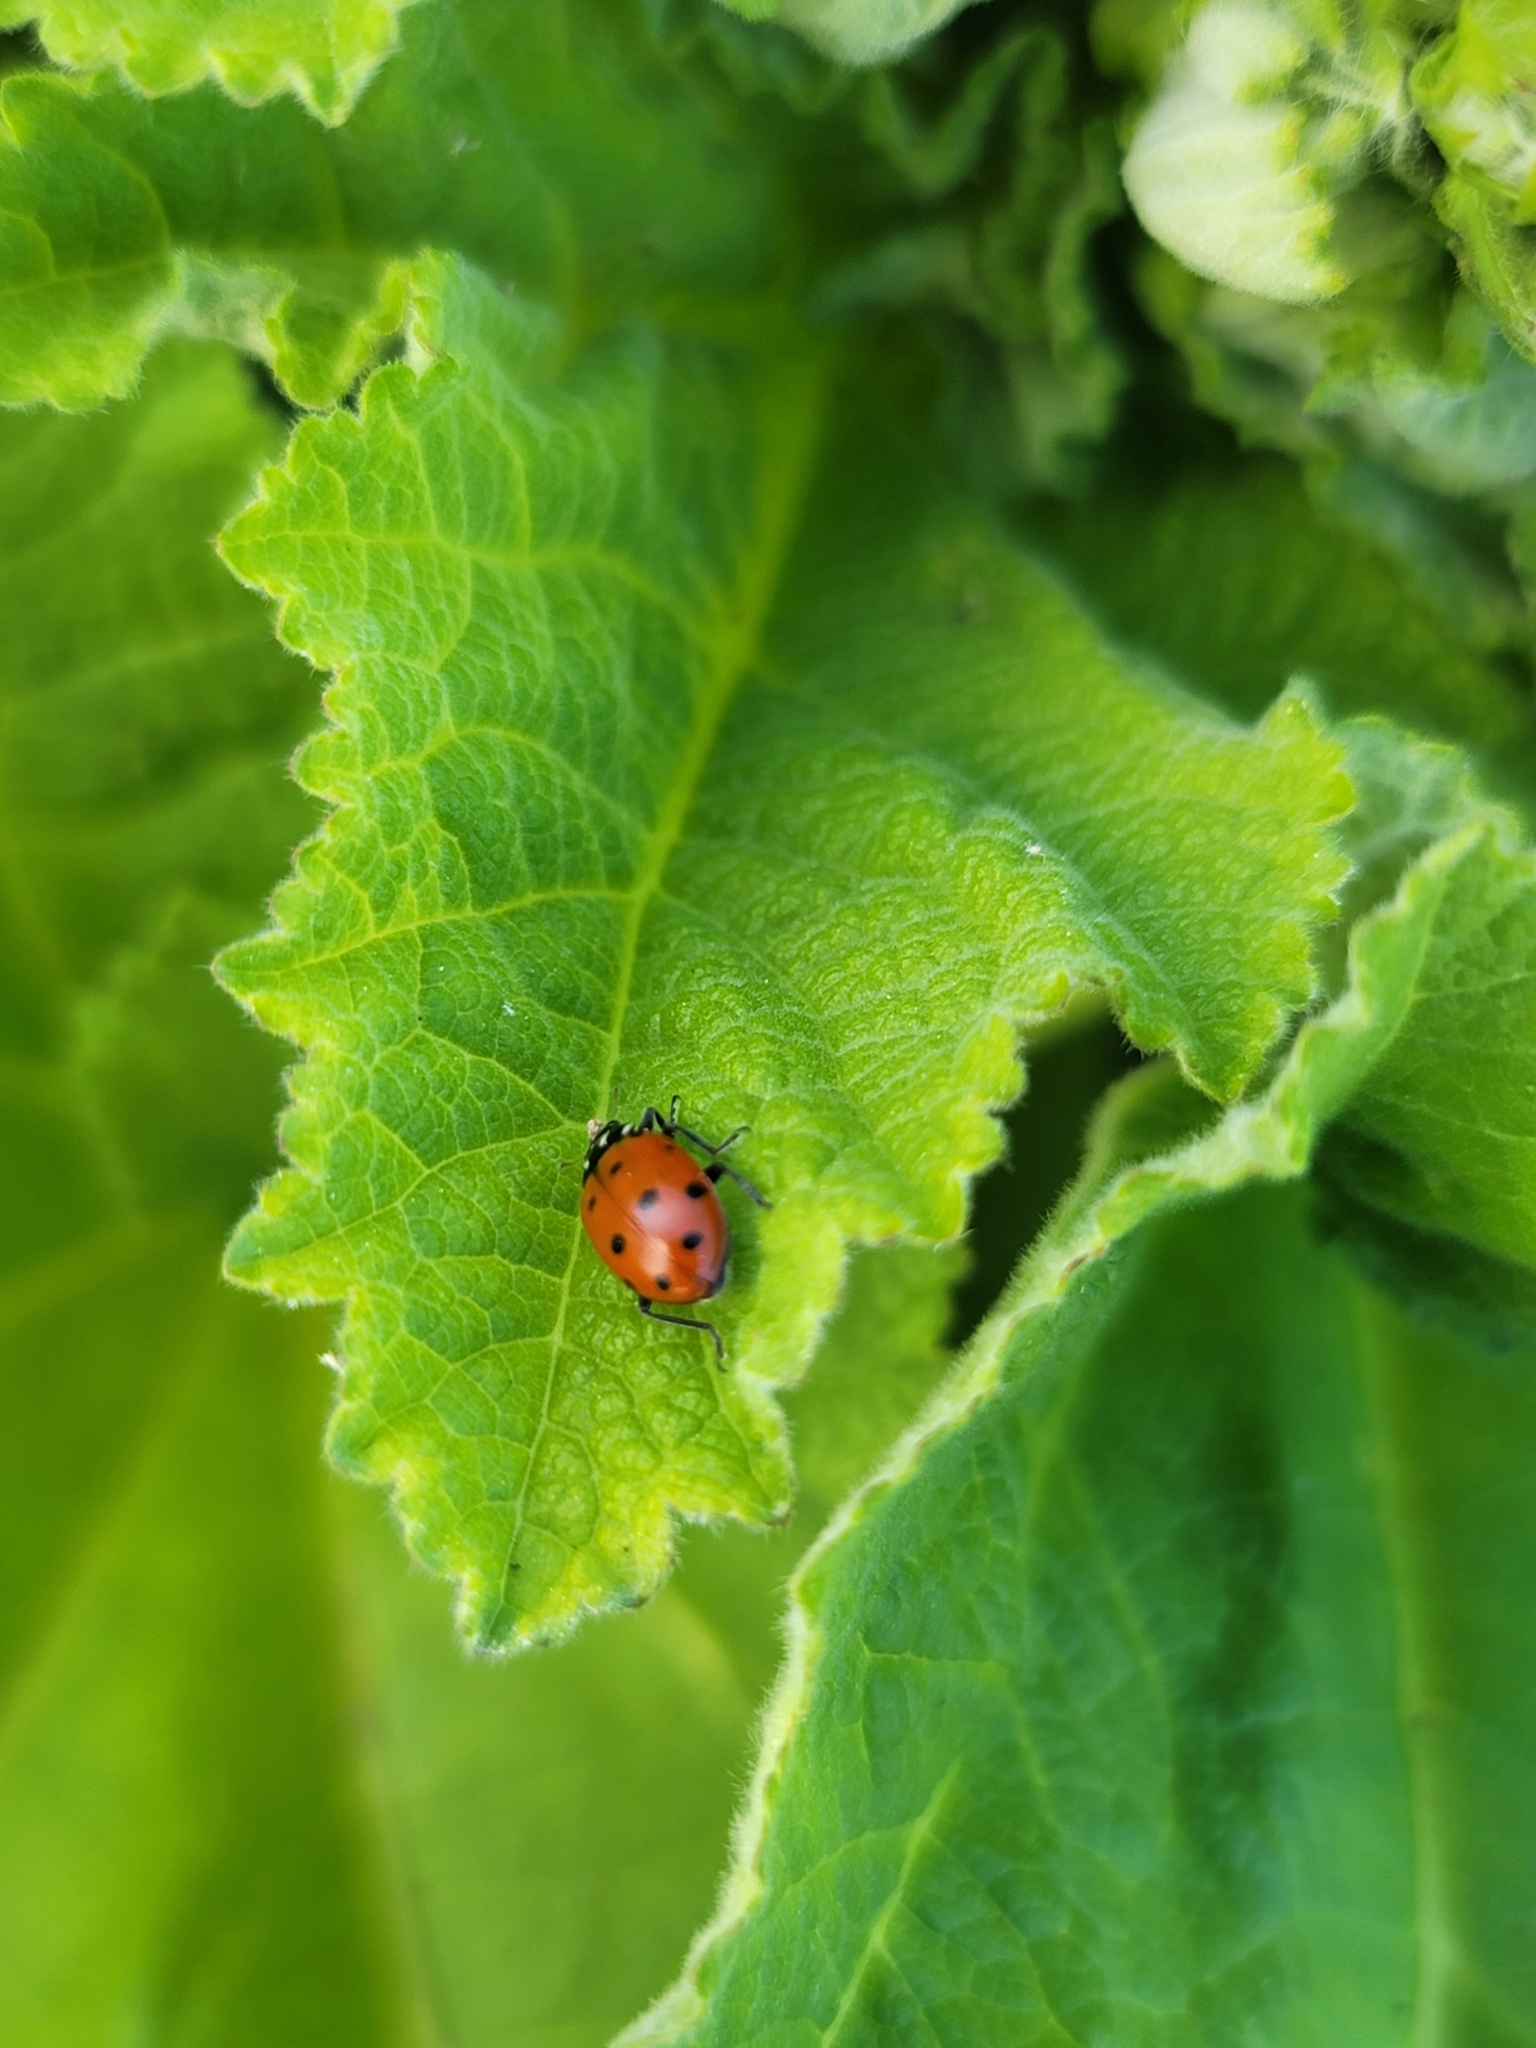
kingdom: Animalia
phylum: Arthropoda
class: Insecta
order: Coleoptera
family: Coccinellidae
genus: Hippodamia
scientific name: Hippodamia convergens
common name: Convergent lady beetle
